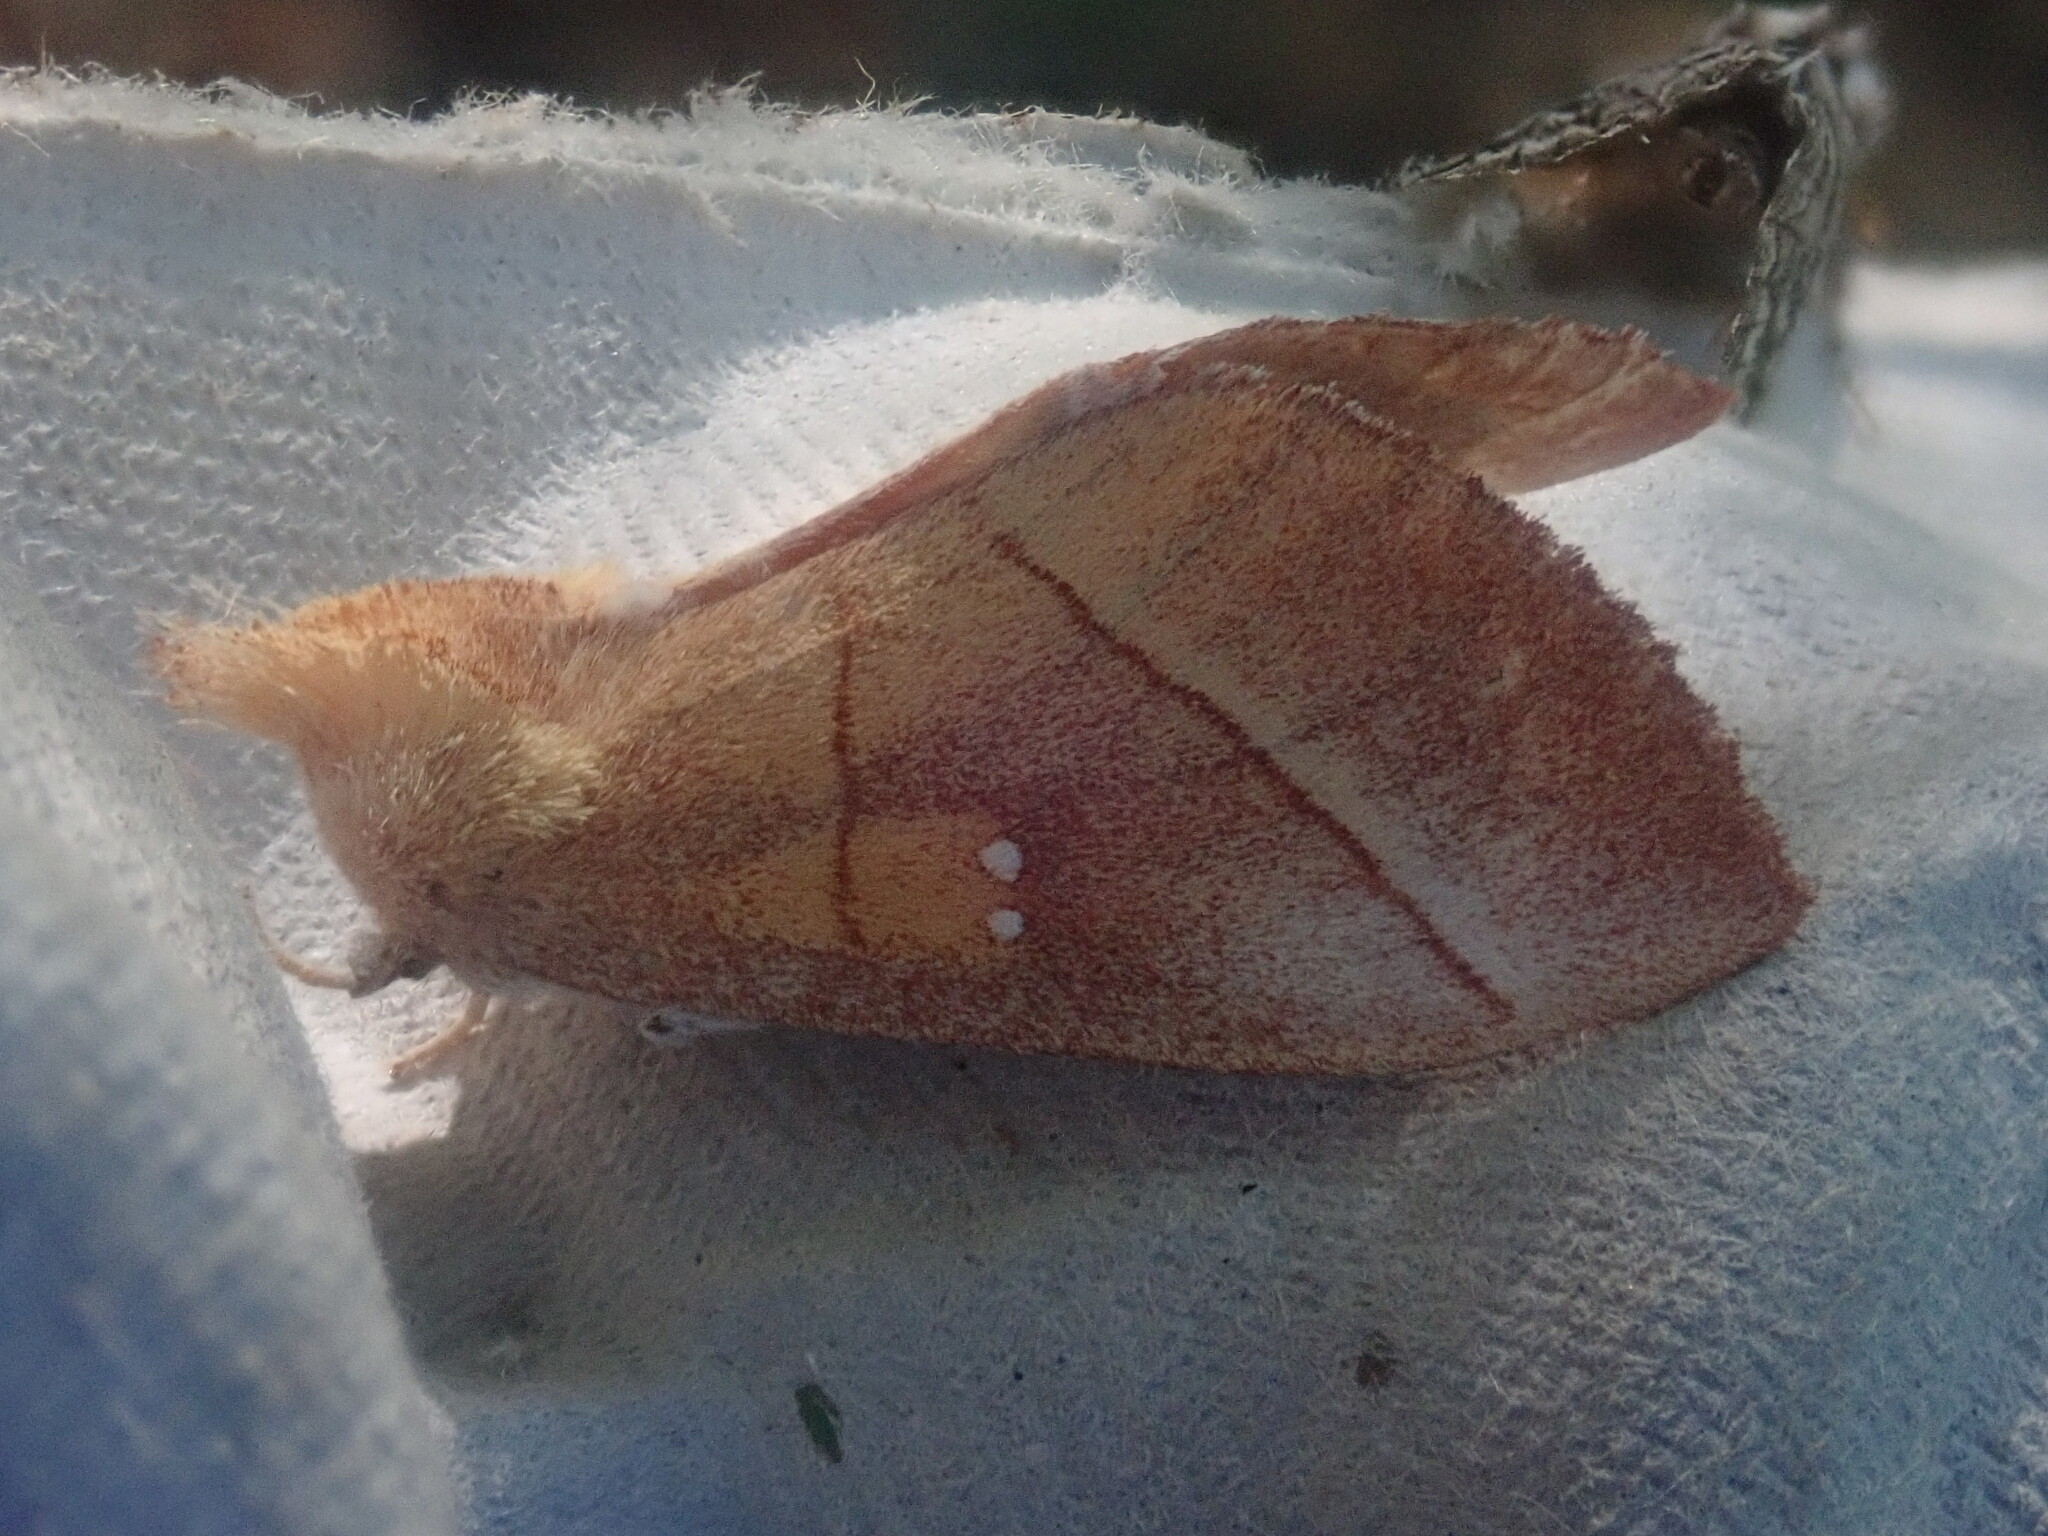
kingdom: Animalia
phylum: Arthropoda
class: Insecta
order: Lepidoptera
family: Notodontidae
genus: Nadata
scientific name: Nadata gibbosa
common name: White-dotted prominent
